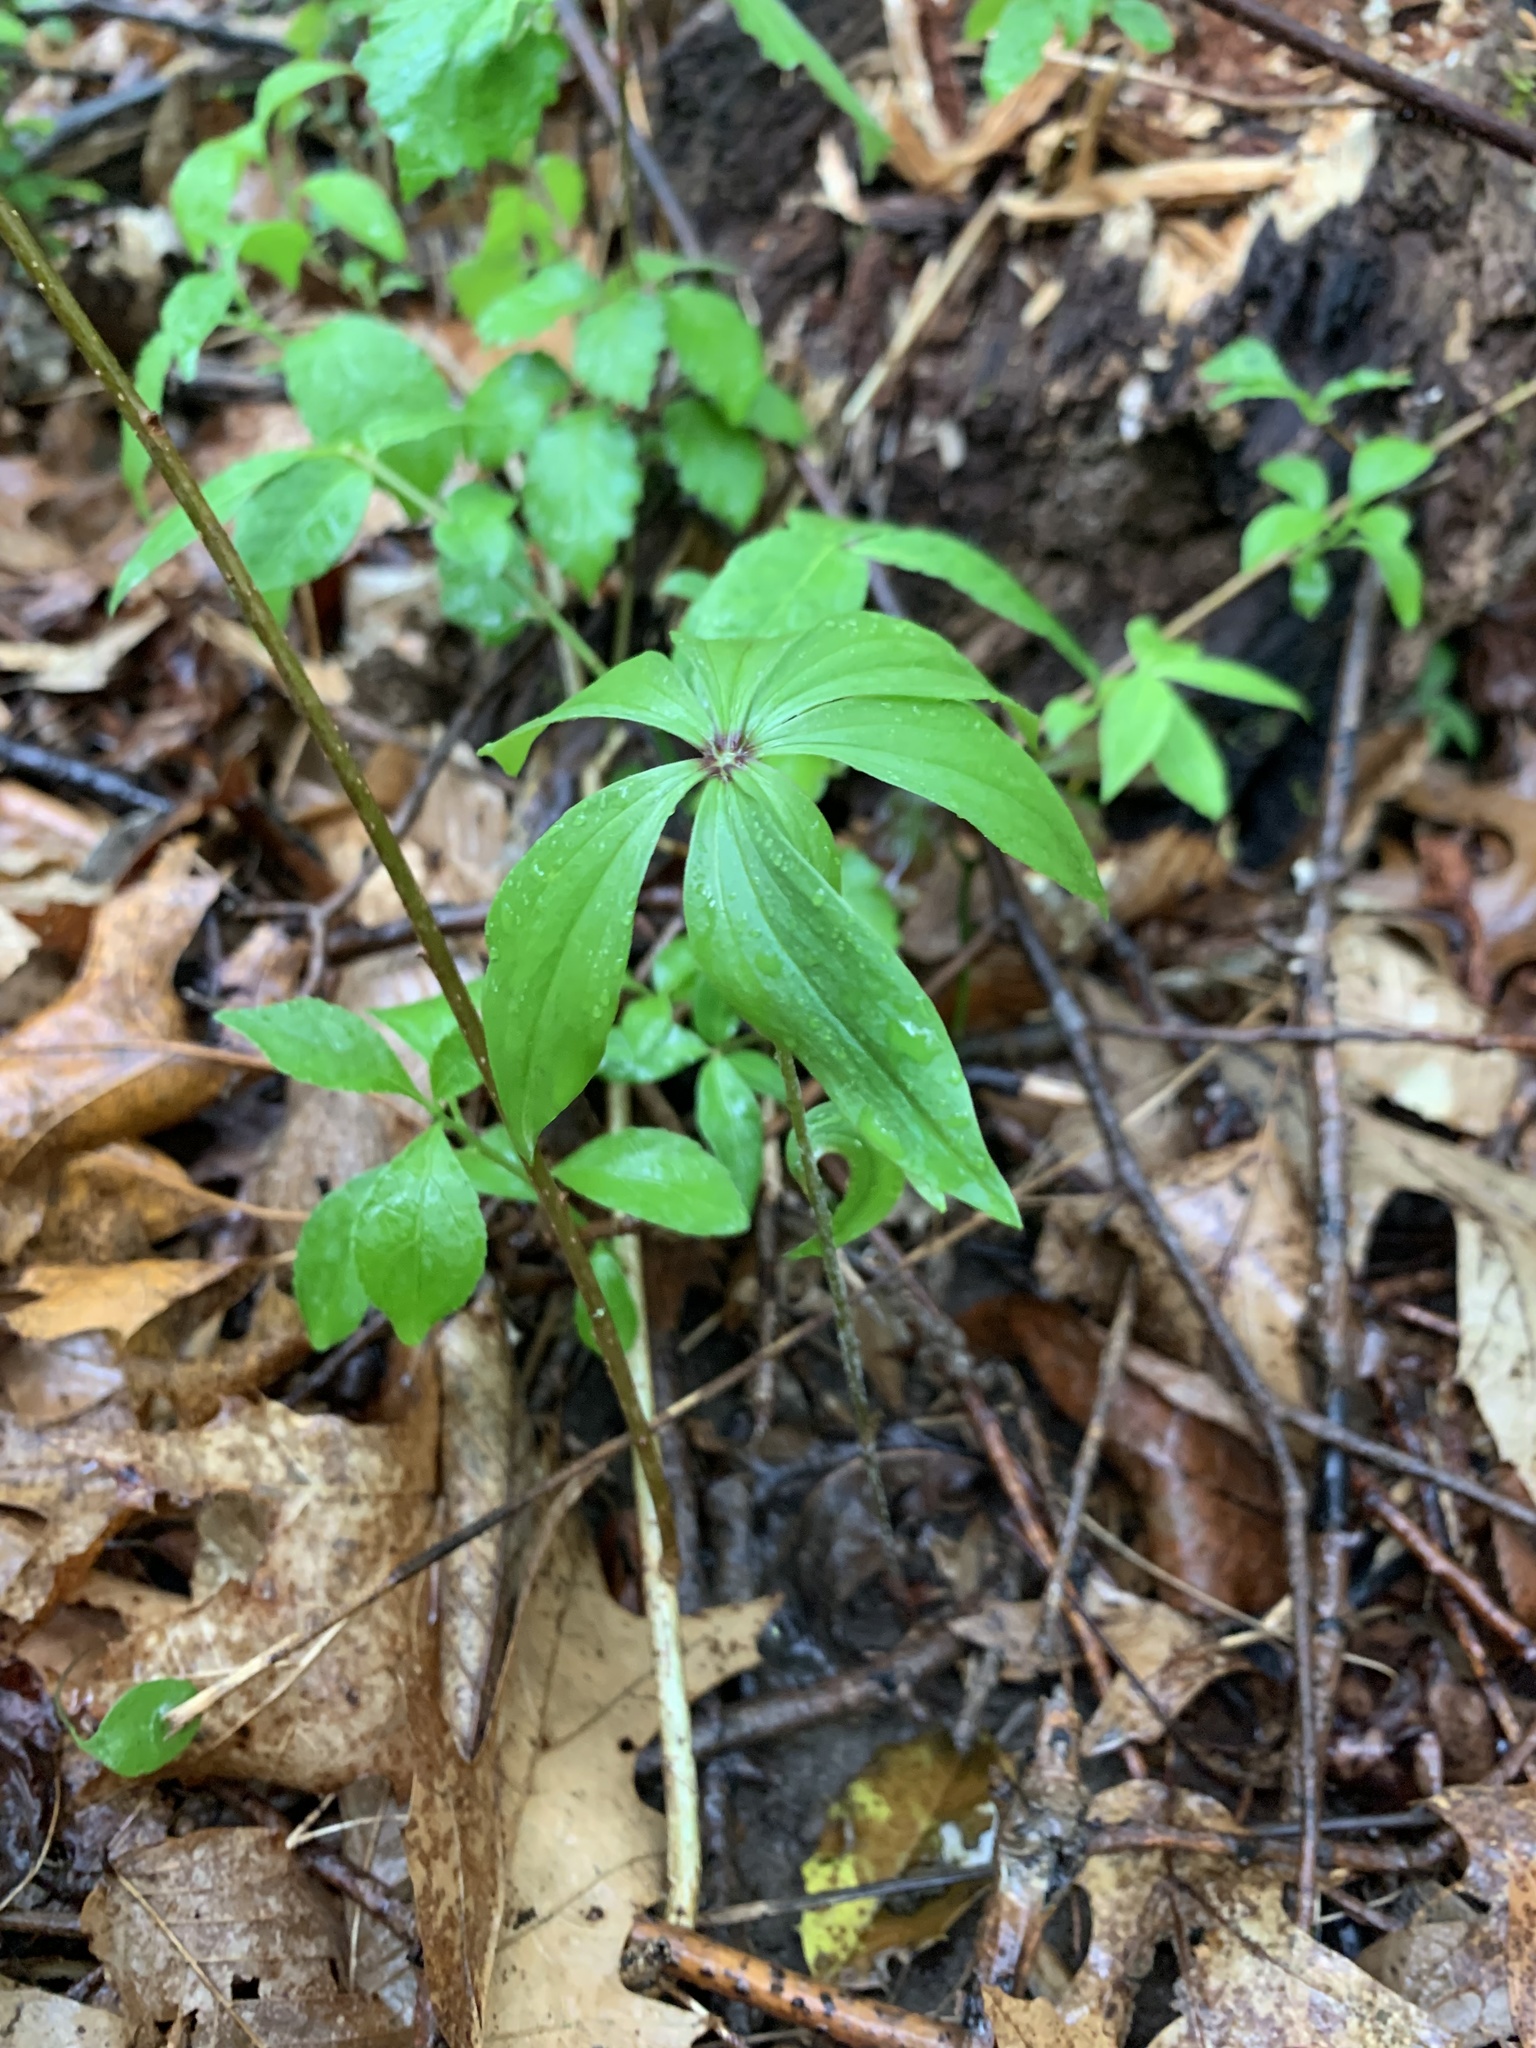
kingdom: Plantae
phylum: Tracheophyta
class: Liliopsida
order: Liliales
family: Liliaceae
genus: Medeola
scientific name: Medeola virginiana
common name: Indian cucumber-root
